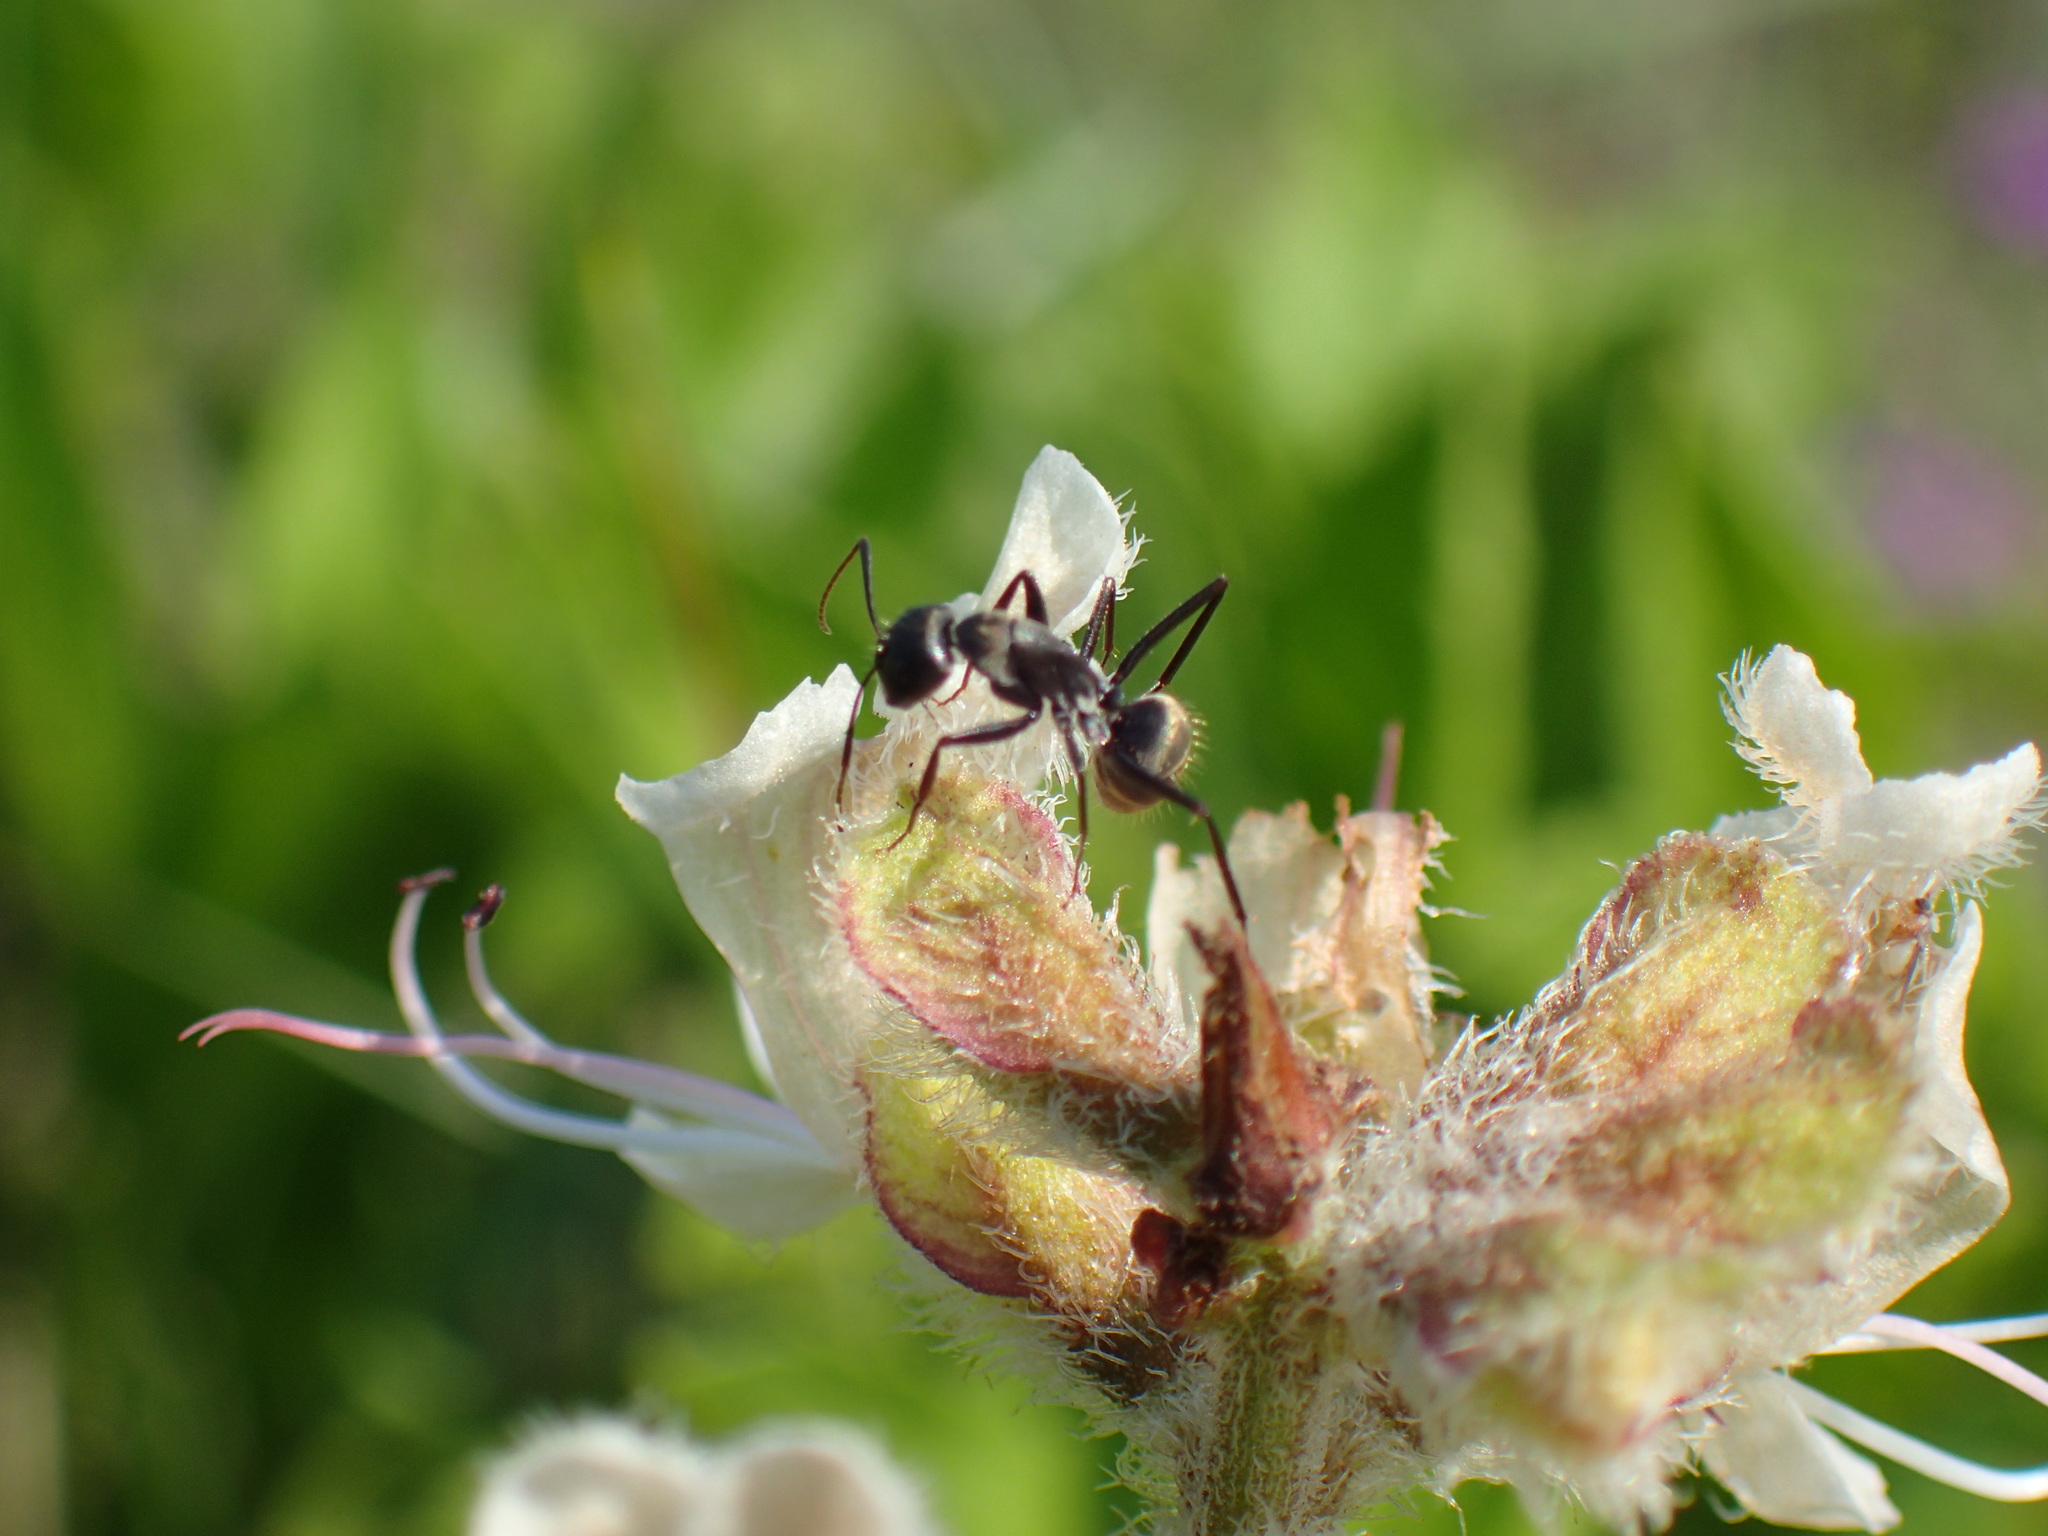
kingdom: Animalia
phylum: Arthropoda
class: Insecta
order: Hymenoptera
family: Formicidae
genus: Camponotus
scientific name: Camponotus cinctellus
